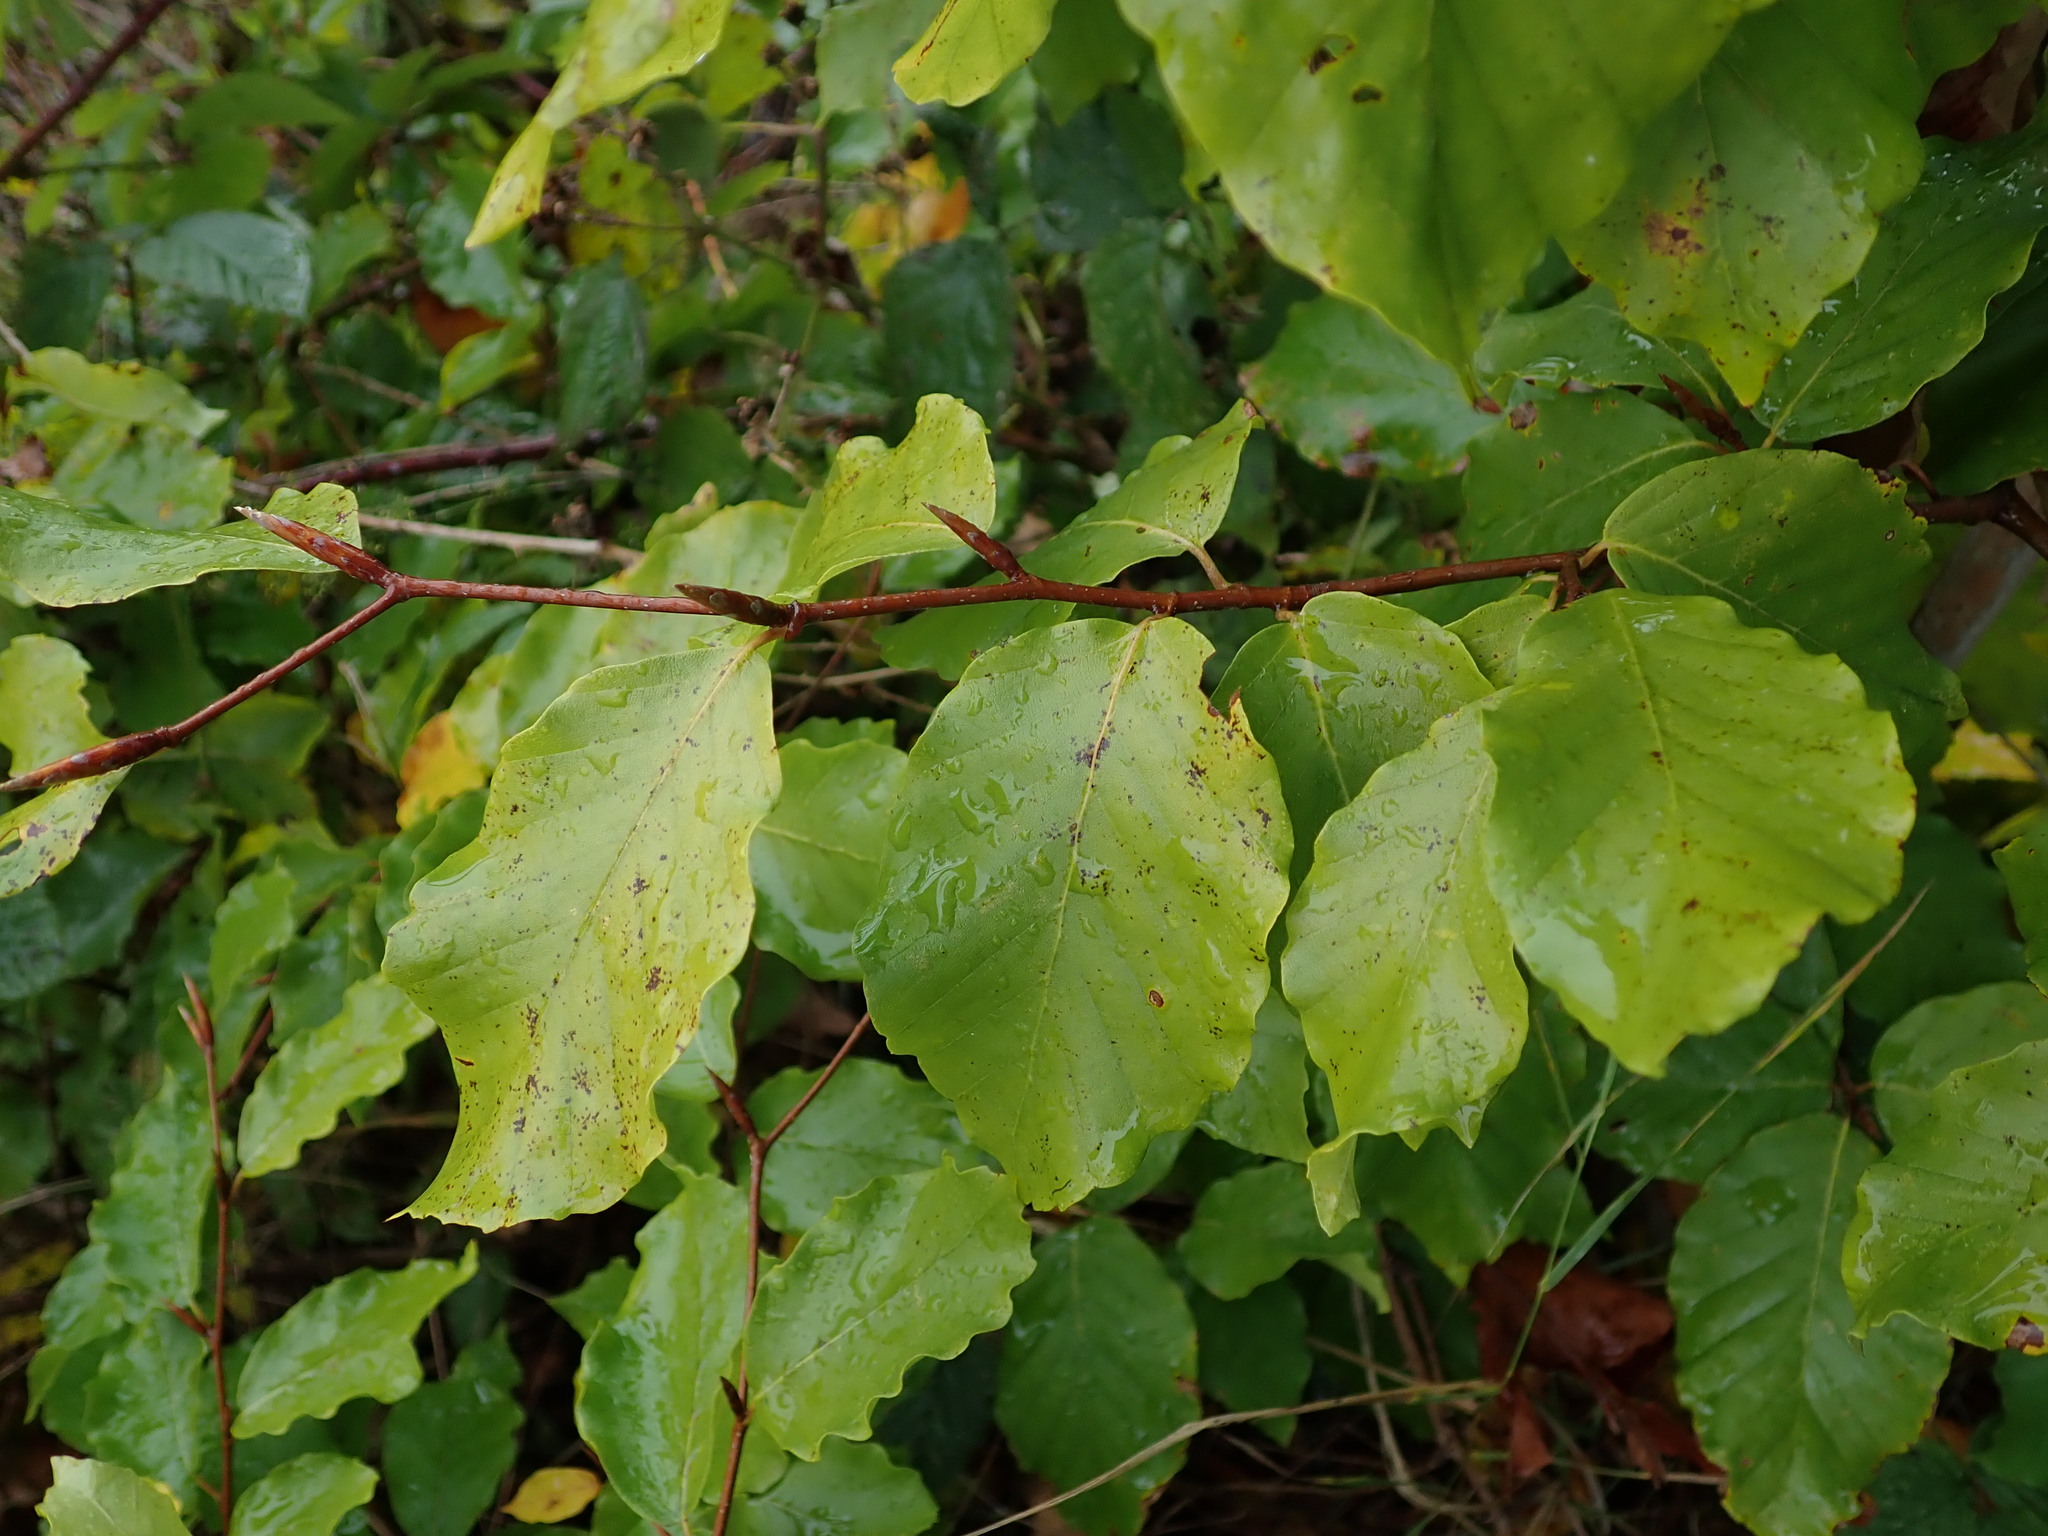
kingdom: Plantae
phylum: Tracheophyta
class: Magnoliopsida
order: Fagales
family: Fagaceae
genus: Fagus
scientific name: Fagus sylvatica
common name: Beech
